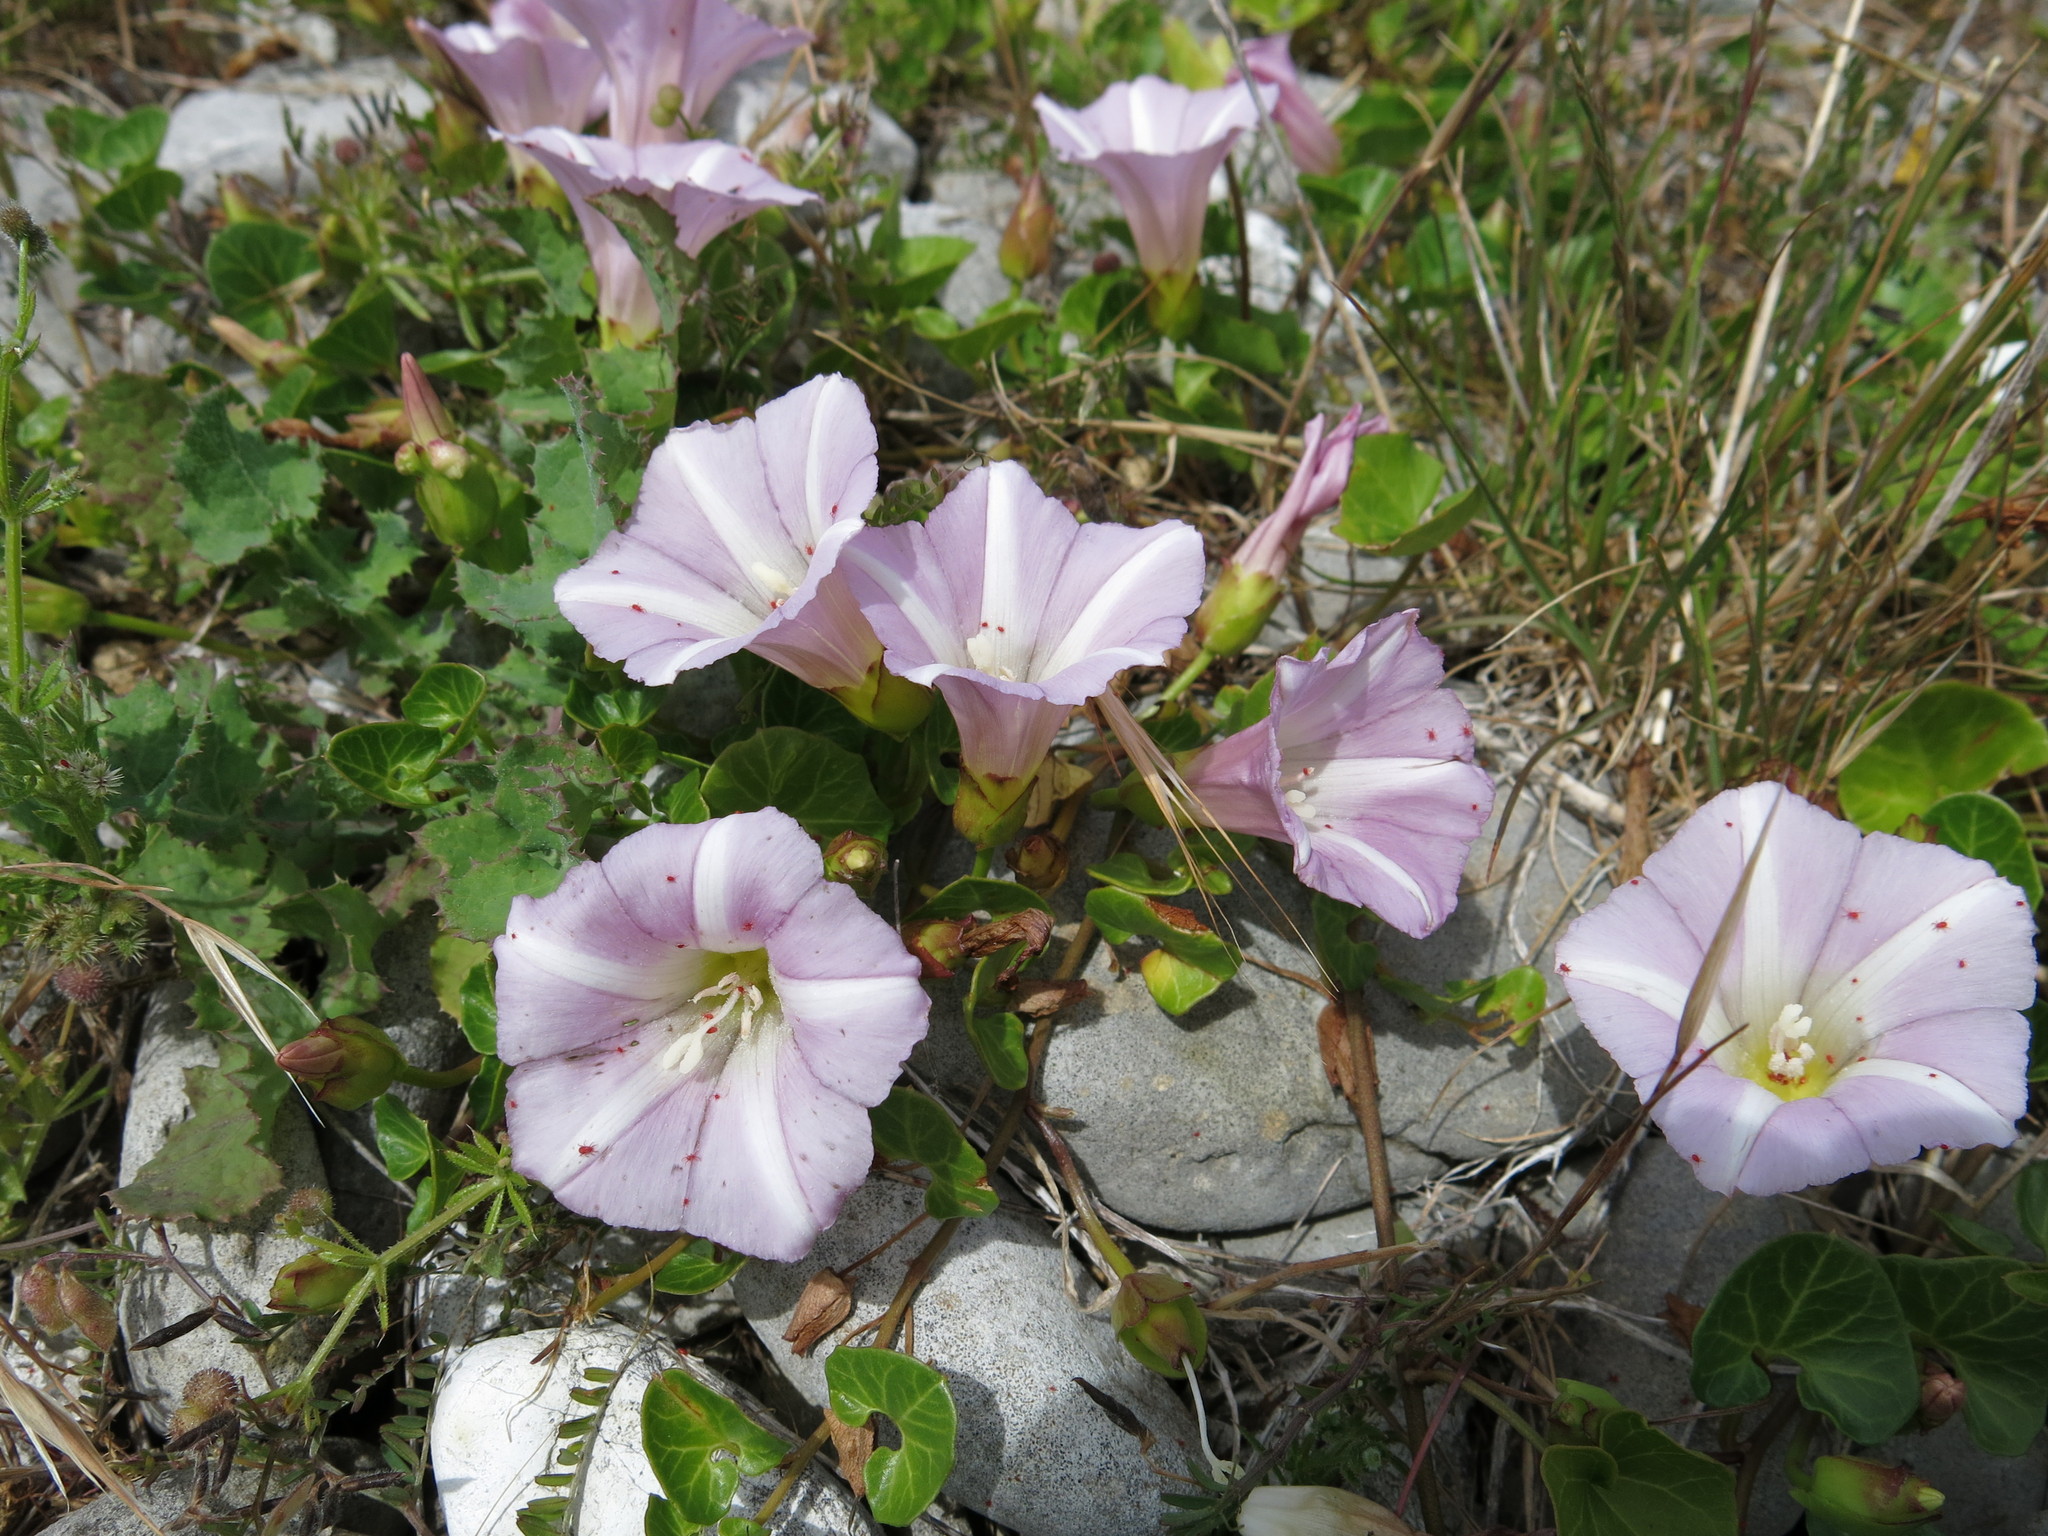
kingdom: Plantae
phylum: Tracheophyta
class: Magnoliopsida
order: Solanales
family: Convolvulaceae
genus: Calystegia
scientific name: Calystegia soldanella
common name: Sea bindweed
